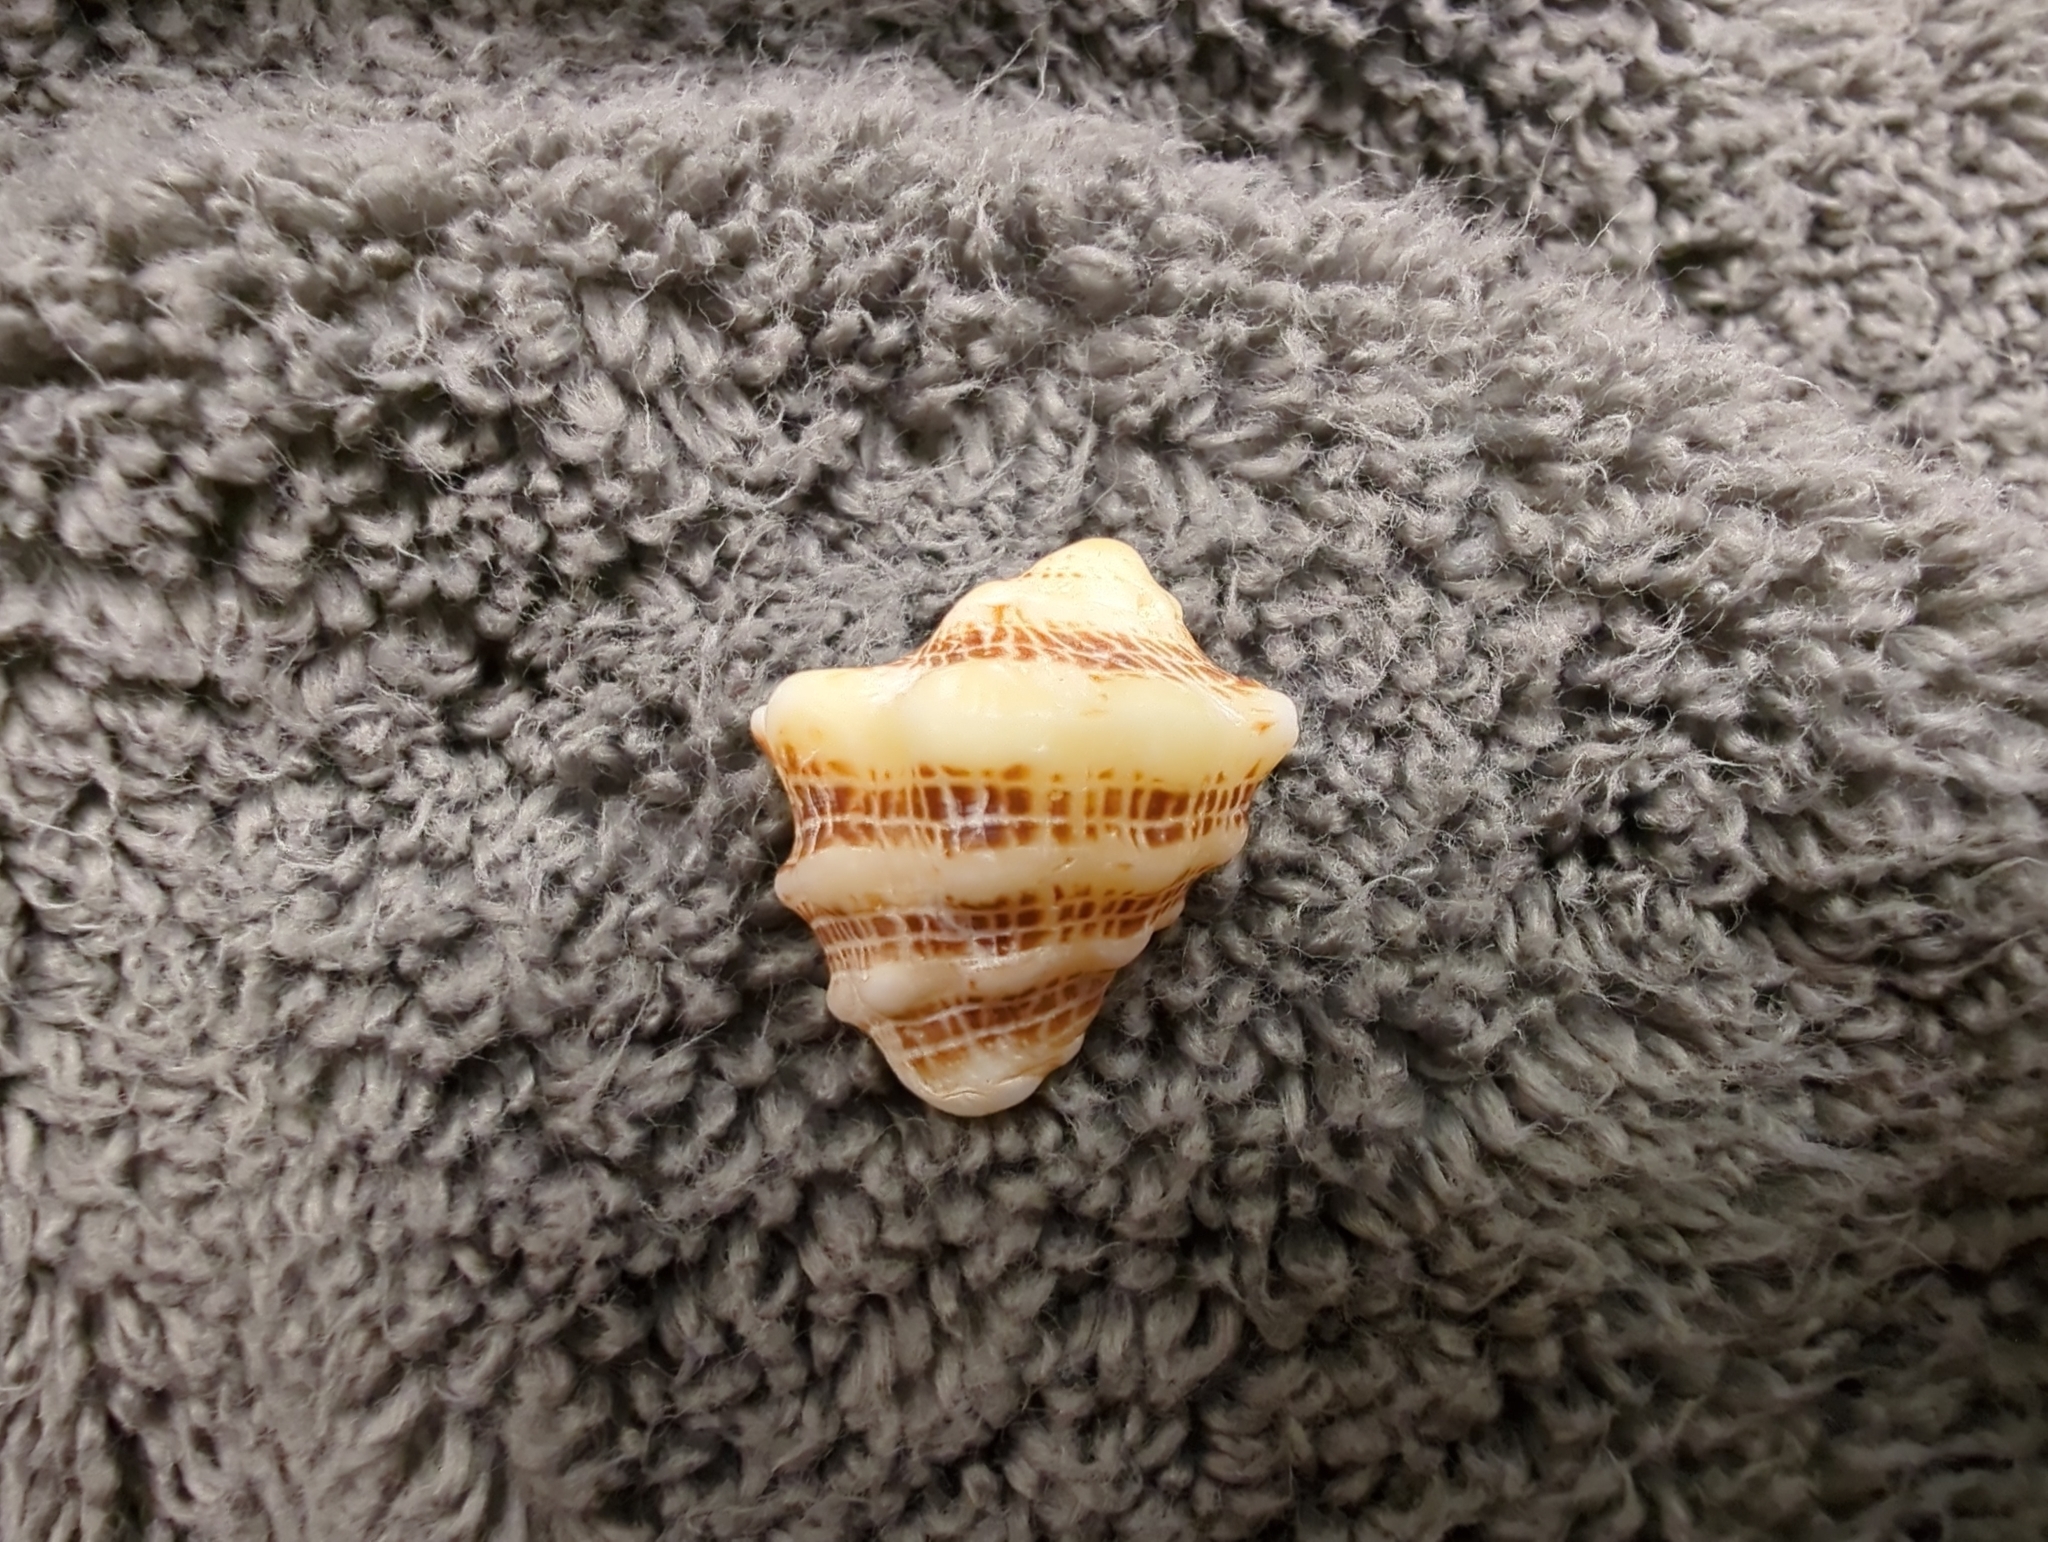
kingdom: Animalia
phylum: Mollusca
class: Gastropoda
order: Neogastropoda
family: Muricidae
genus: Vasula
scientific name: Vasula speciosa
